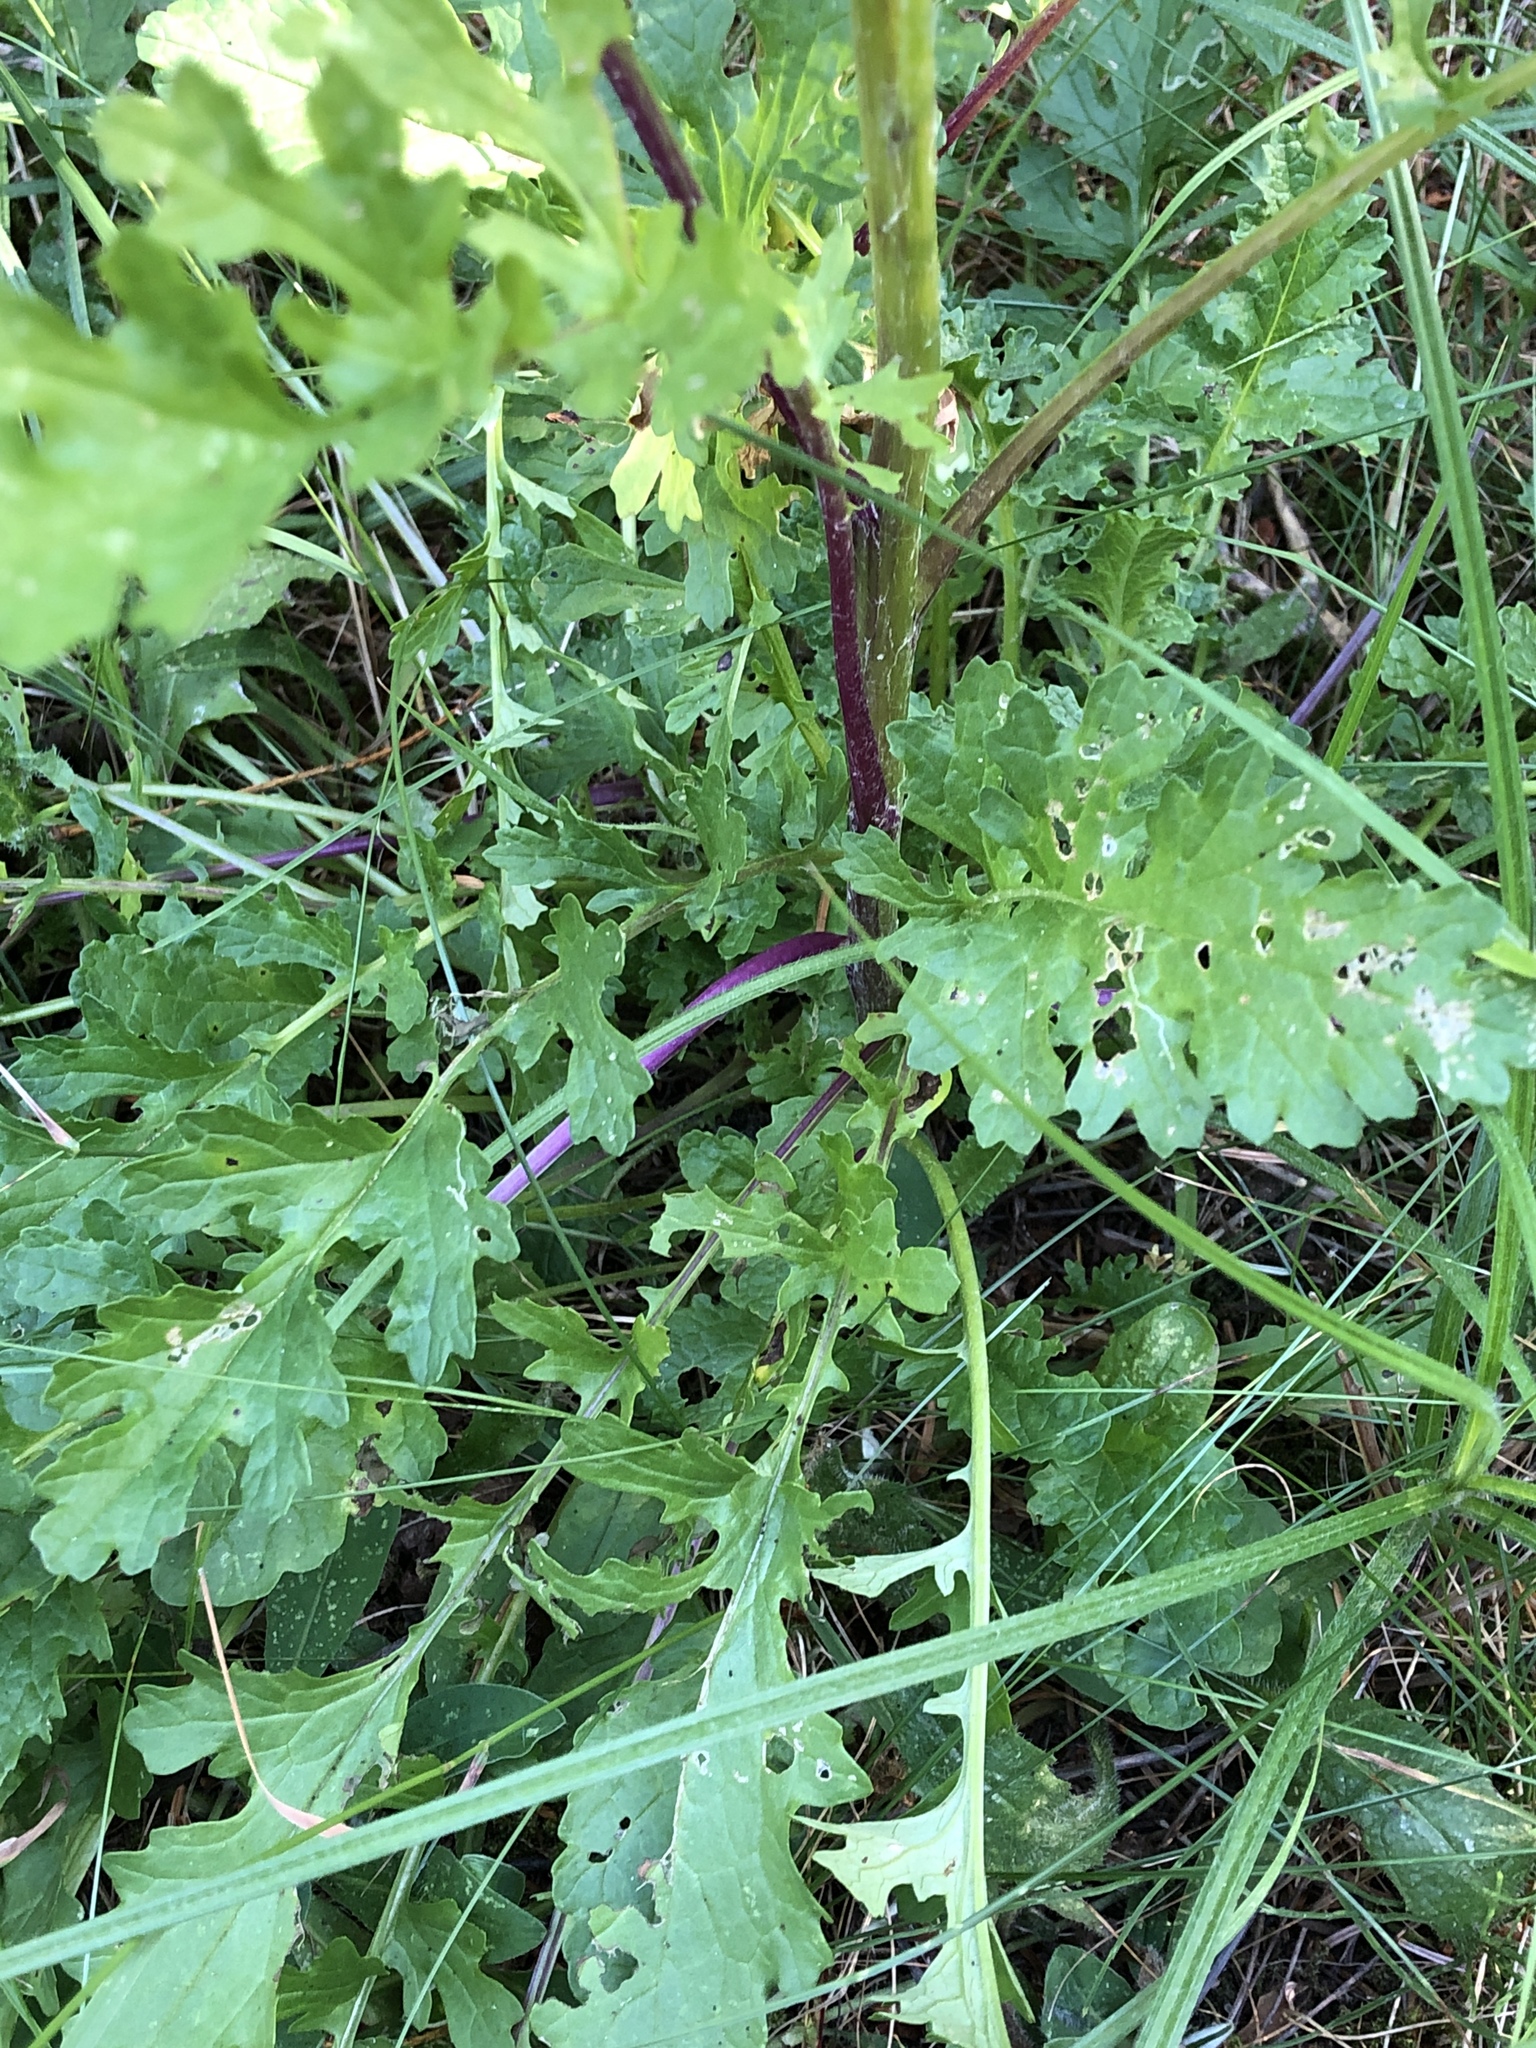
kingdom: Plantae
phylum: Tracheophyta
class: Magnoliopsida
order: Asterales
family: Asteraceae
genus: Jacobaea
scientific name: Jacobaea vulgaris
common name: Stinking willie
